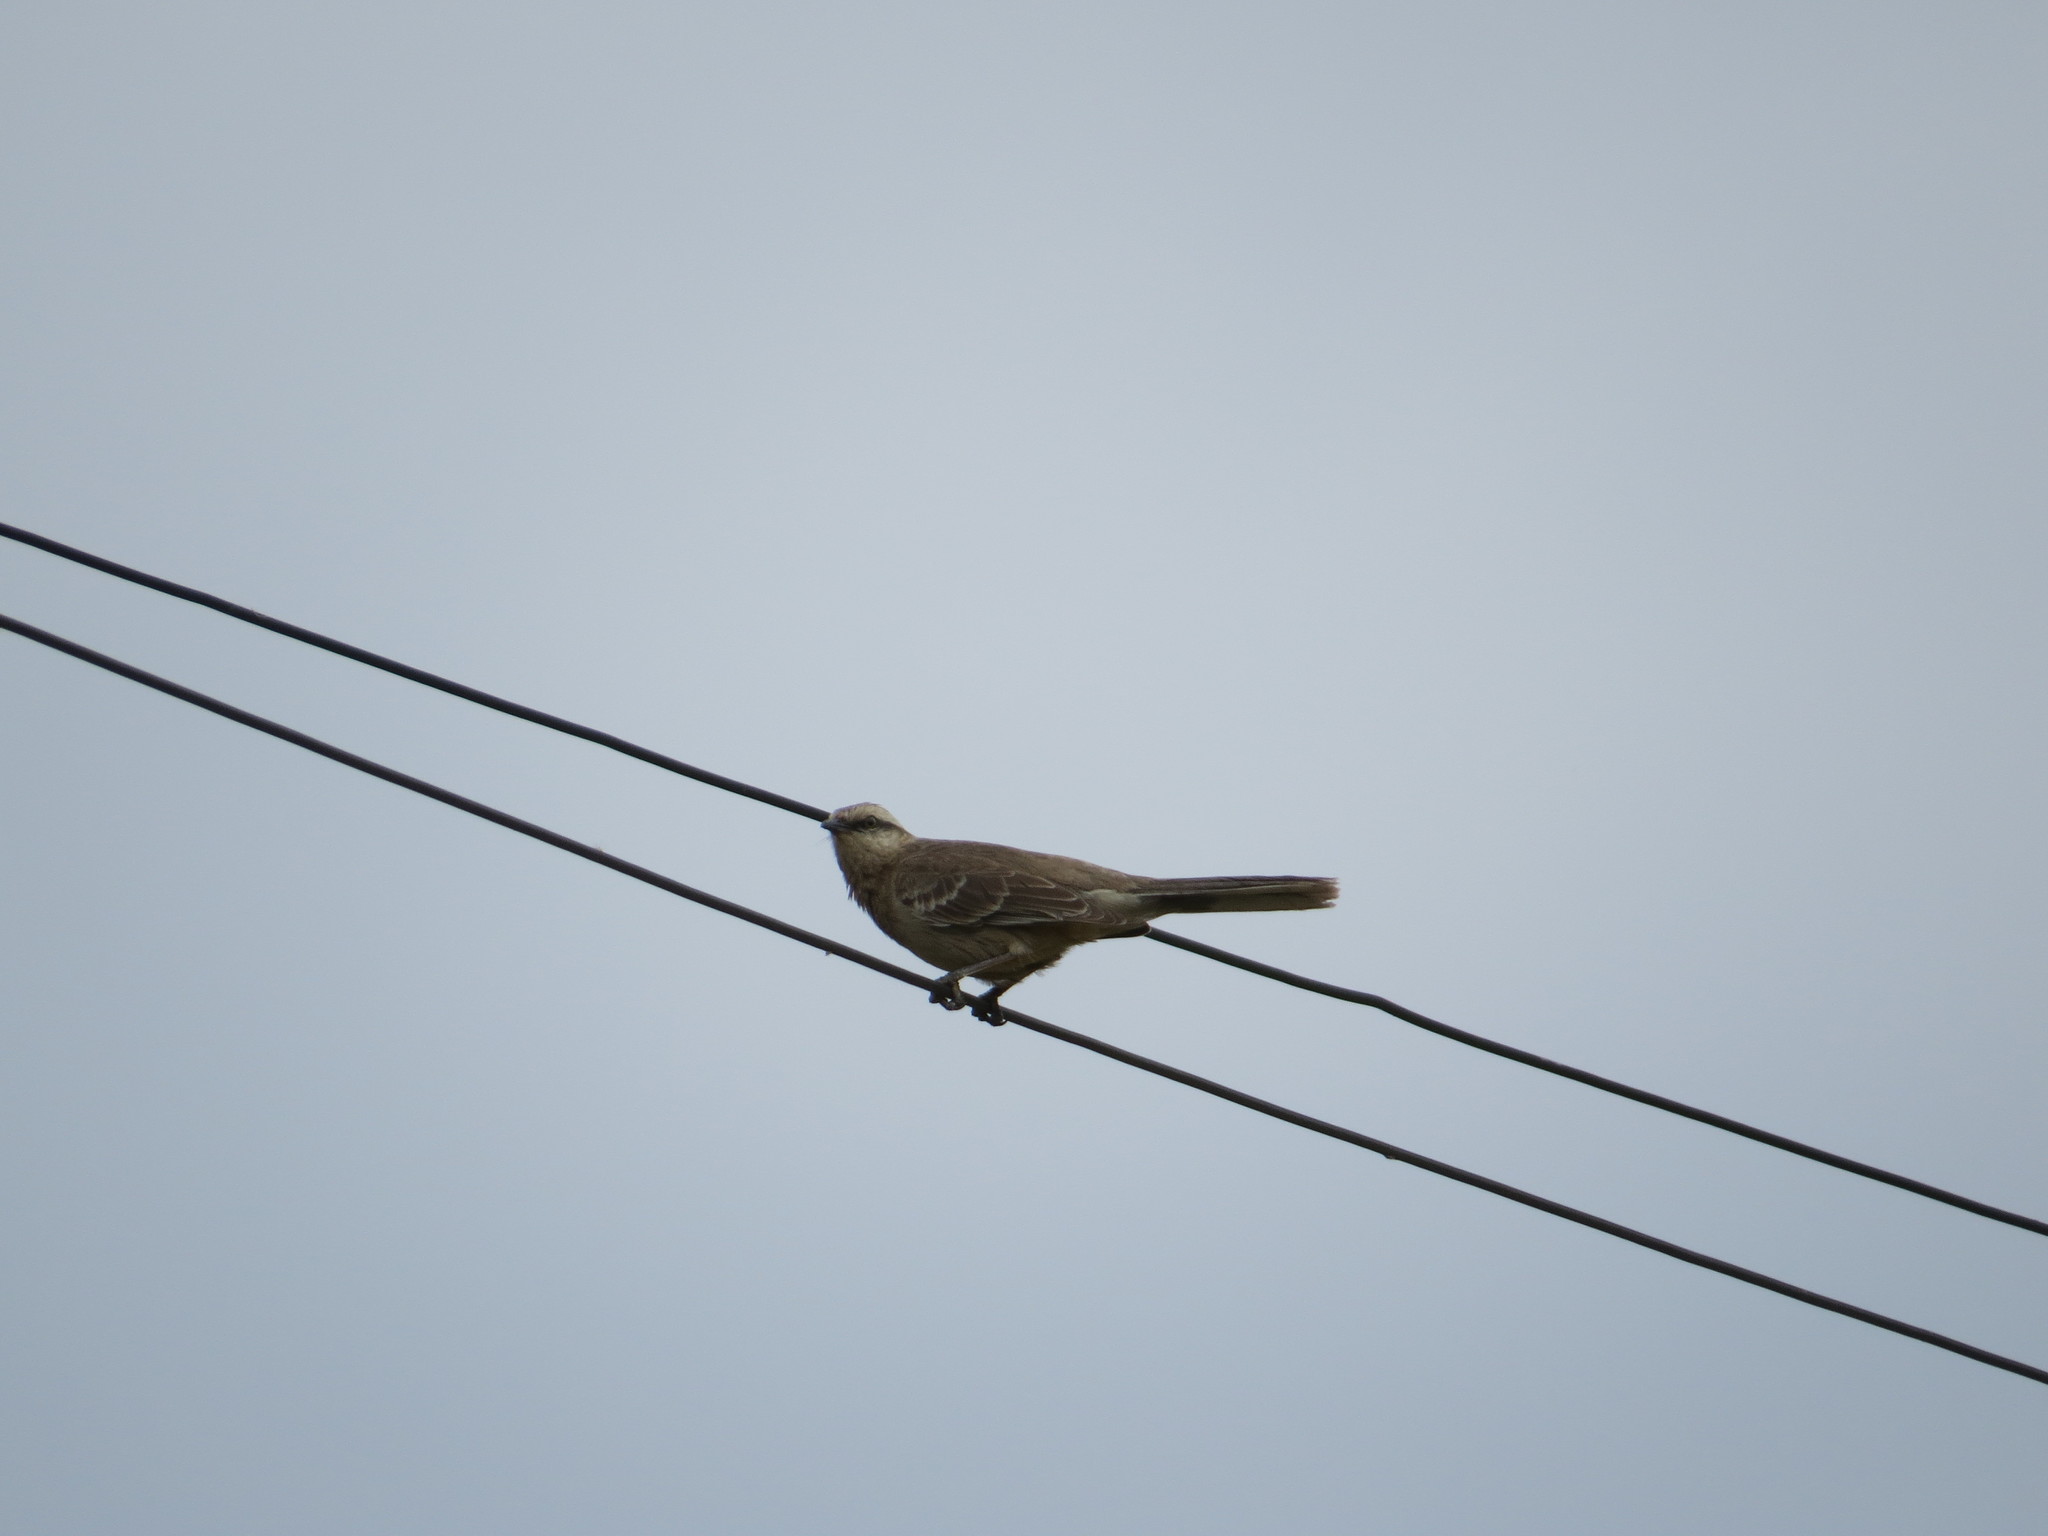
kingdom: Animalia
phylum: Chordata
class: Aves
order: Passeriformes
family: Mimidae
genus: Mimus
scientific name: Mimus saturninus
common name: Chalk-browed mockingbird
